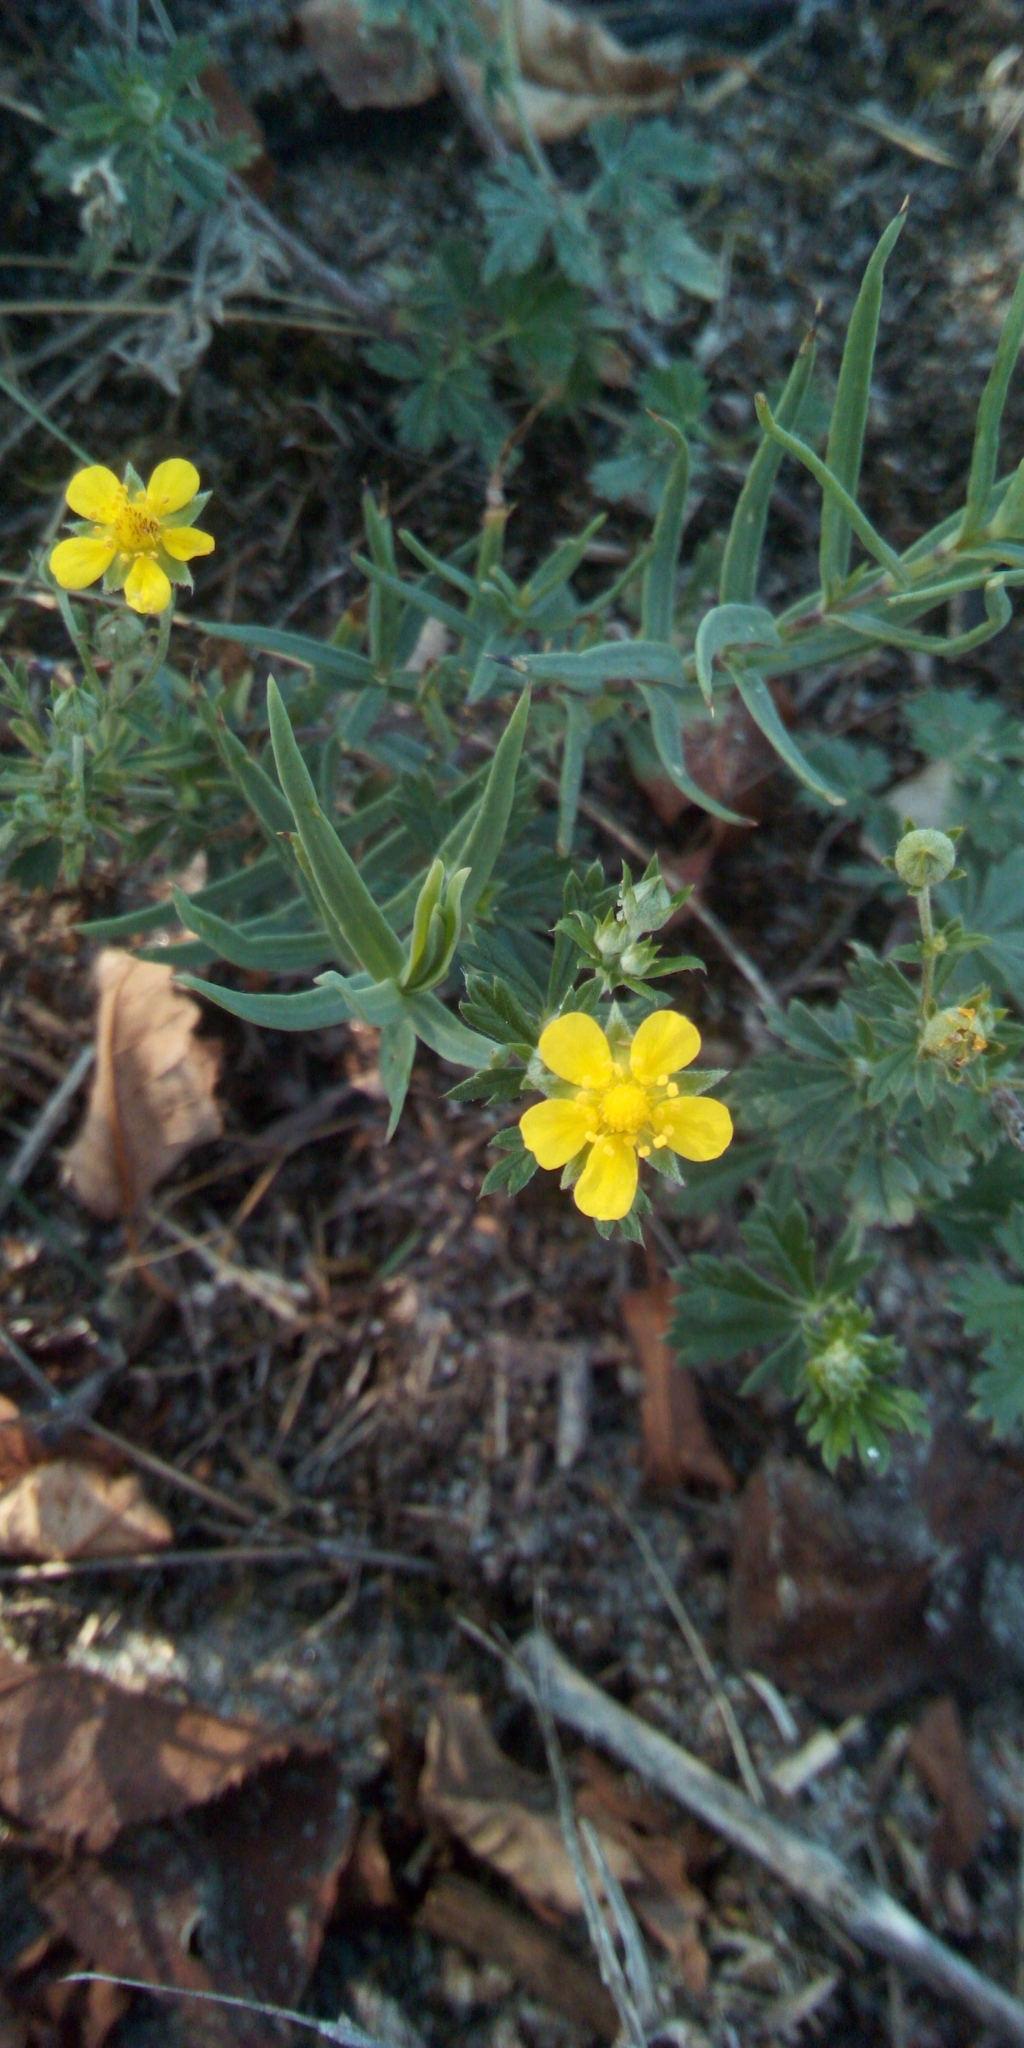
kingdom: Plantae
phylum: Tracheophyta
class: Magnoliopsida
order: Rosales
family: Rosaceae
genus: Potentilla
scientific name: Potentilla argentea
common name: Hoary cinquefoil
